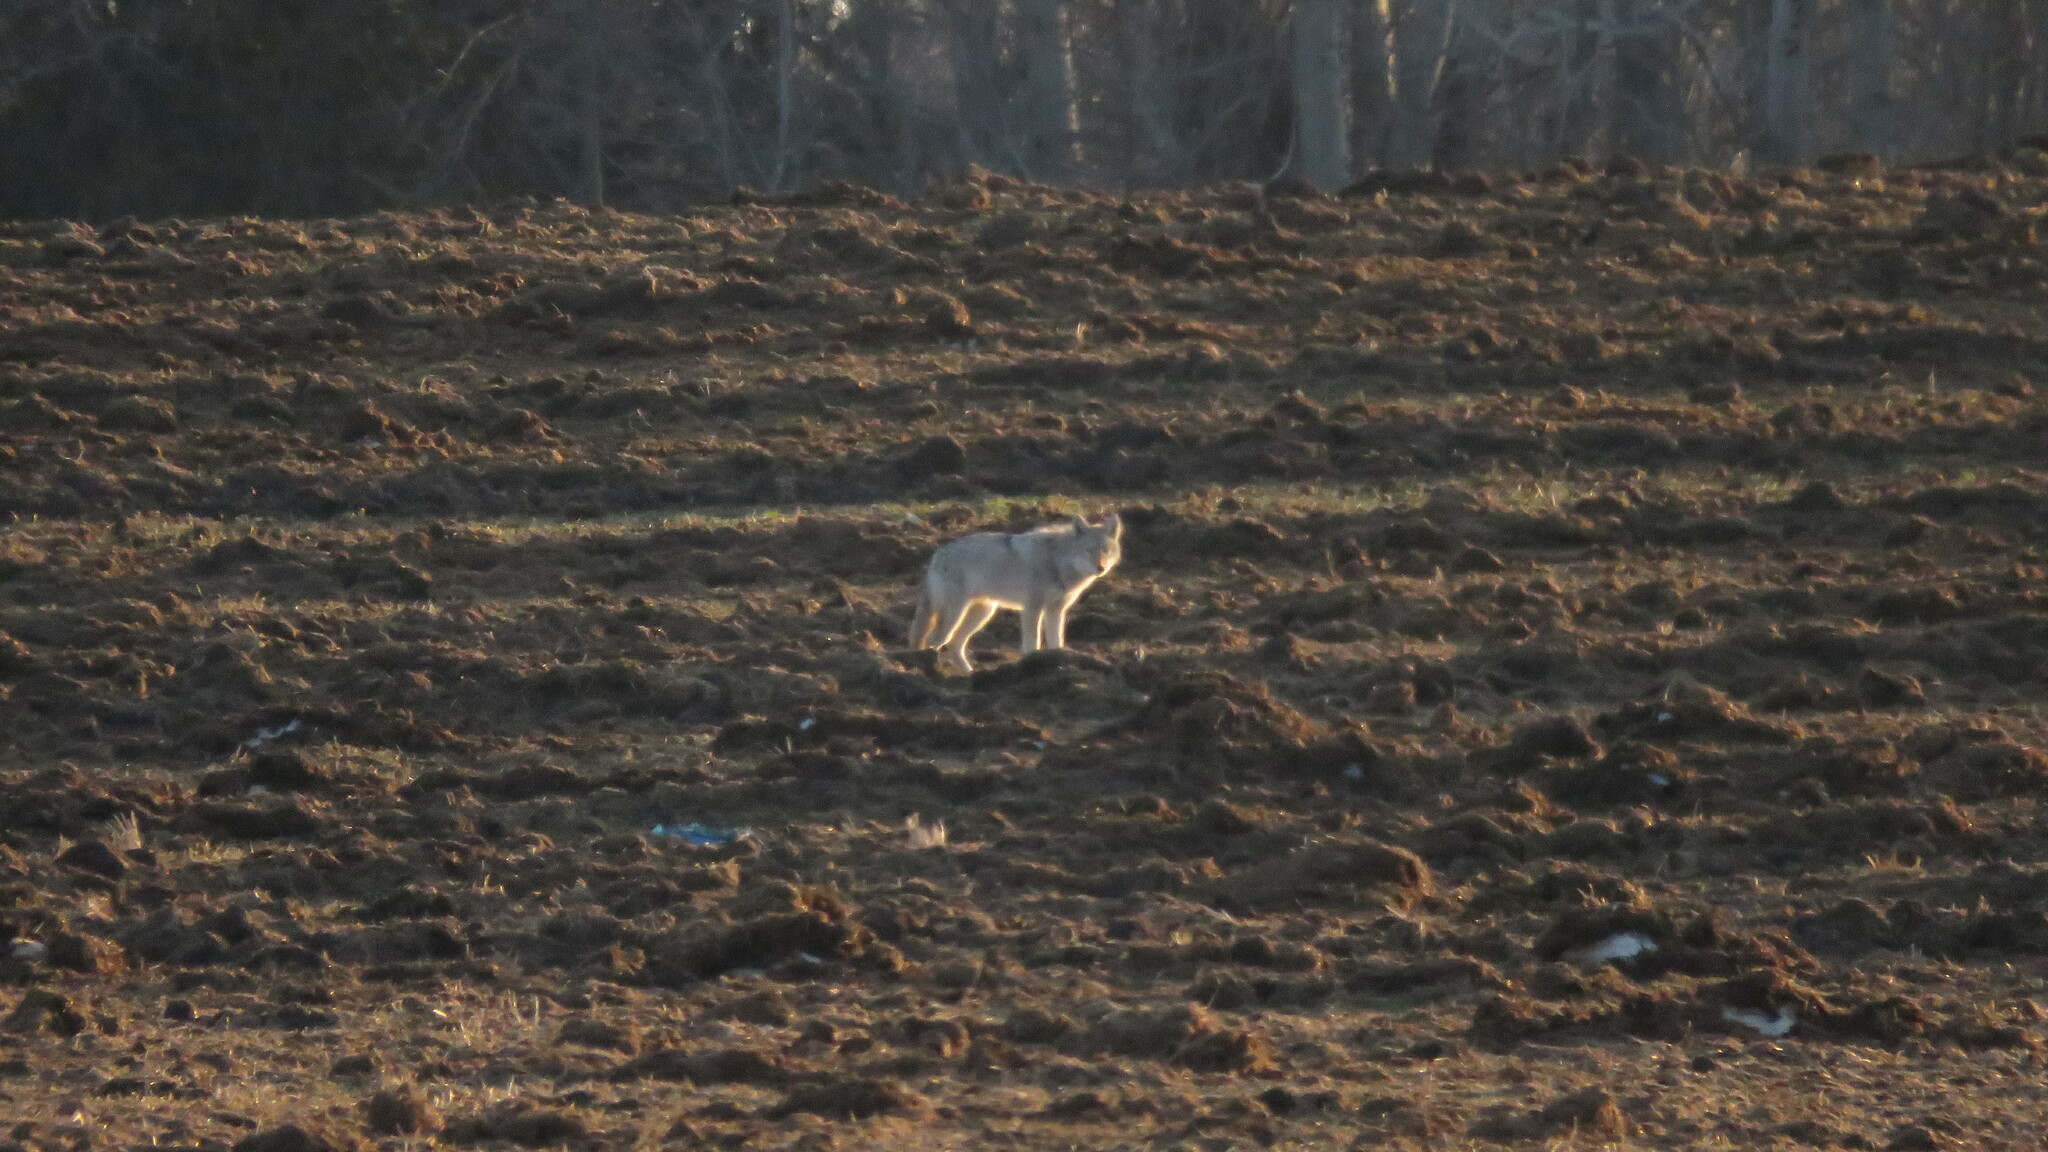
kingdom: Animalia
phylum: Chordata
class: Mammalia
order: Carnivora
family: Canidae
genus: Canis
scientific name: Canis latrans
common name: Coyote
